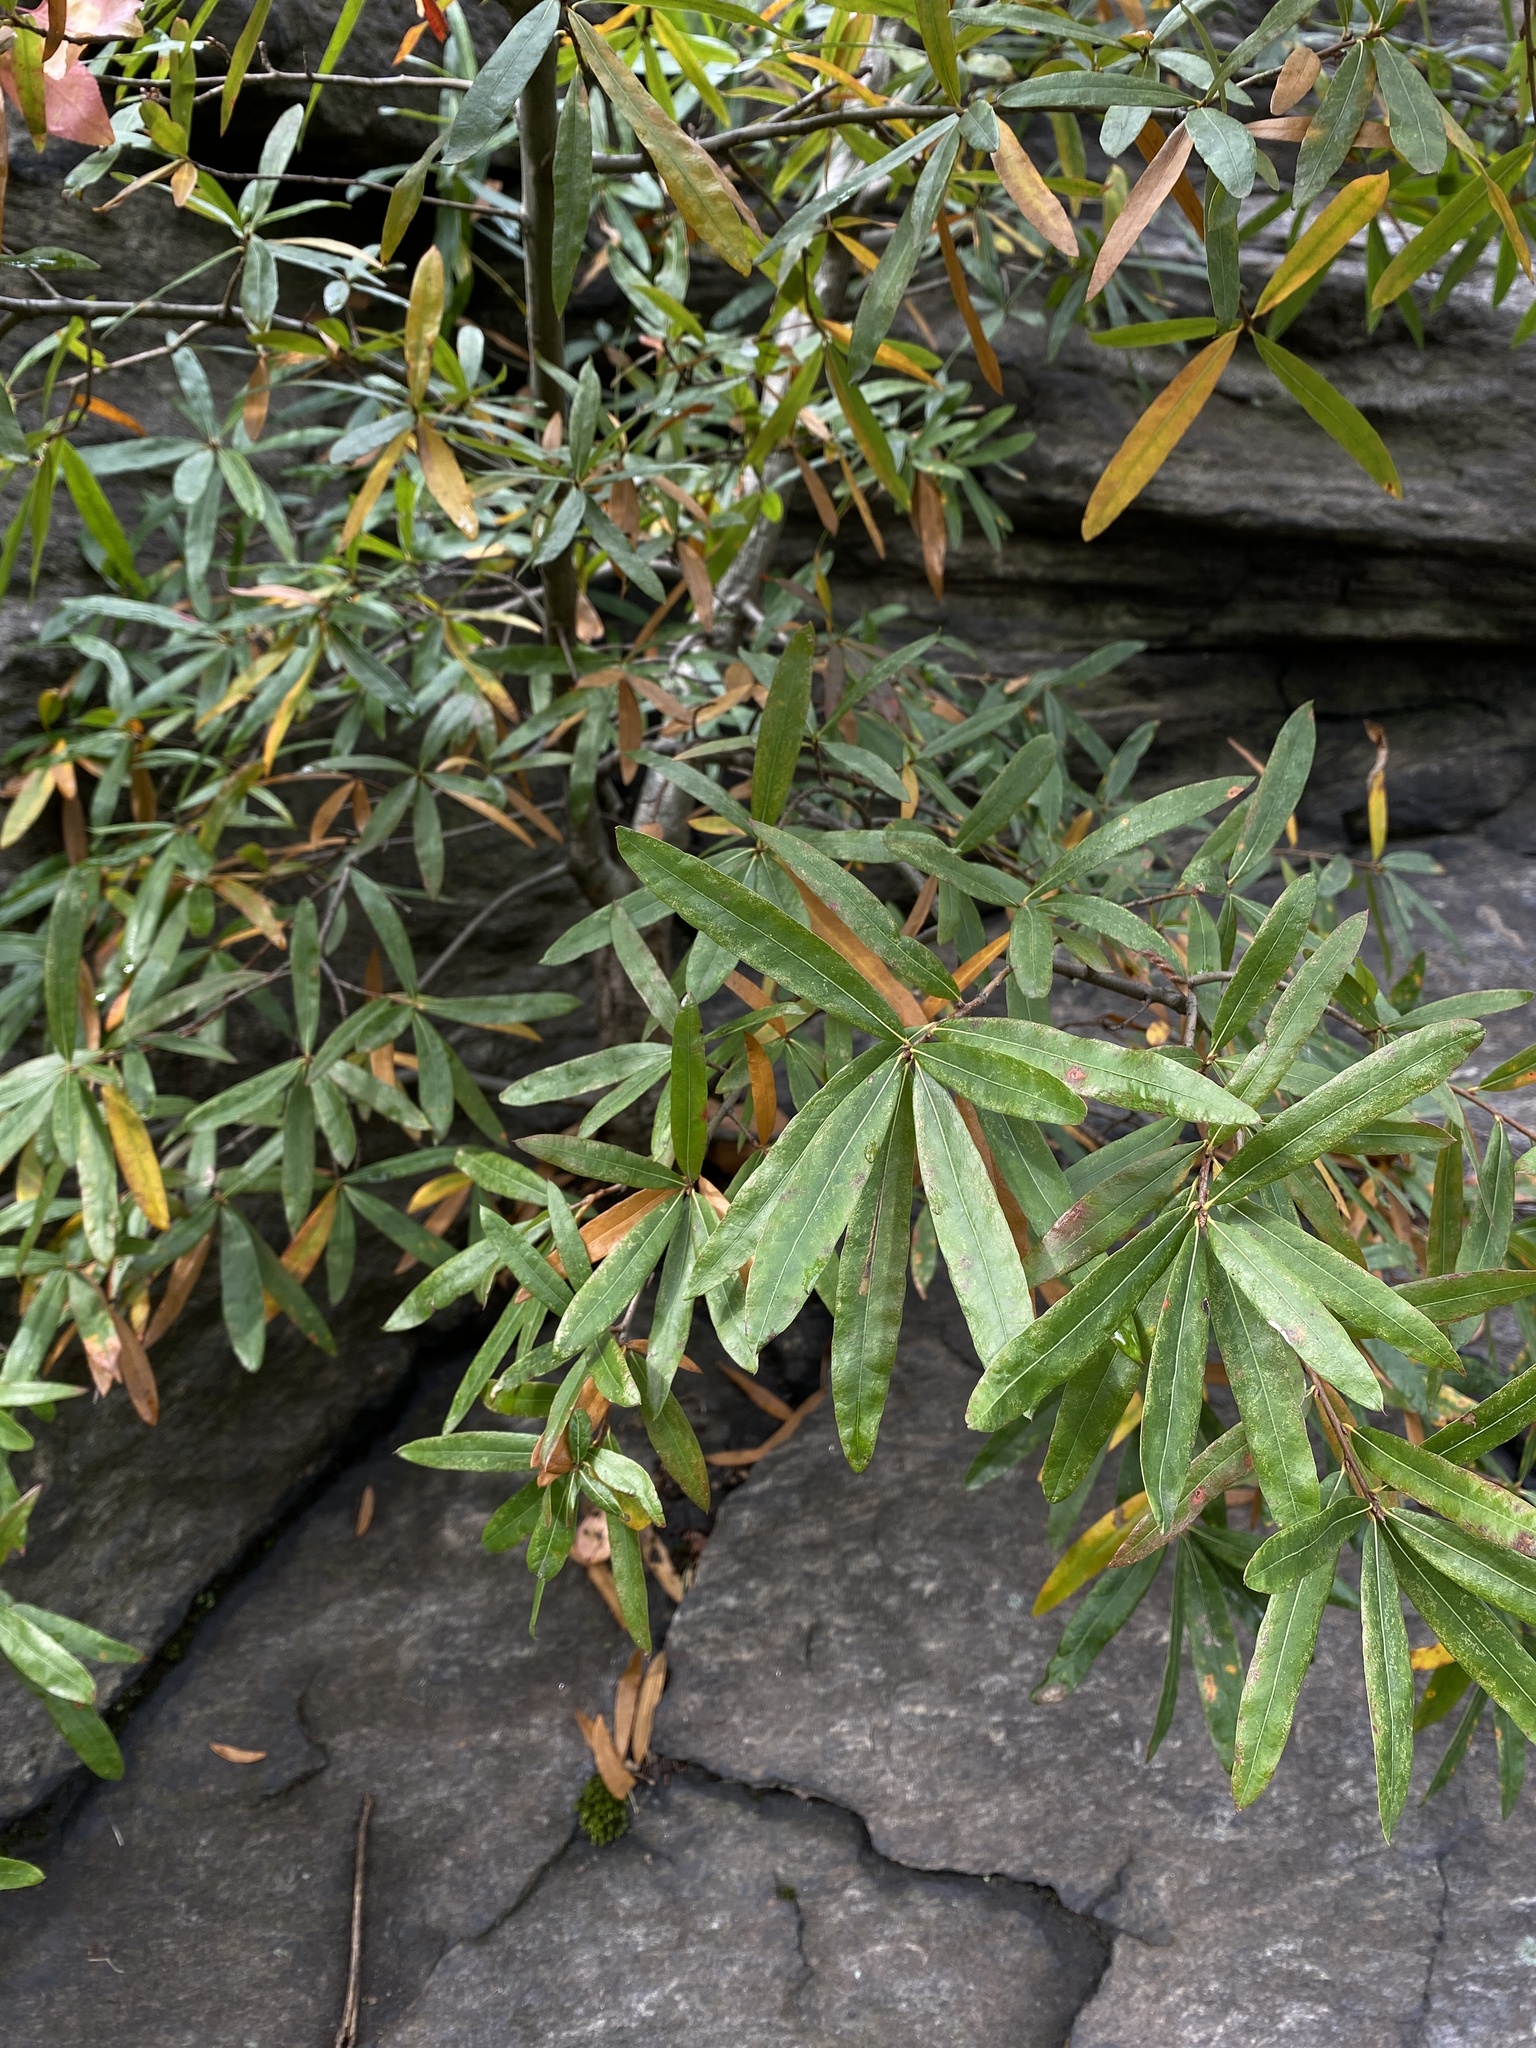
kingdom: Plantae
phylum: Tracheophyta
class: Magnoliopsida
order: Fagales
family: Fagaceae
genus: Quercus
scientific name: Quercus phellos
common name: Willow oak
